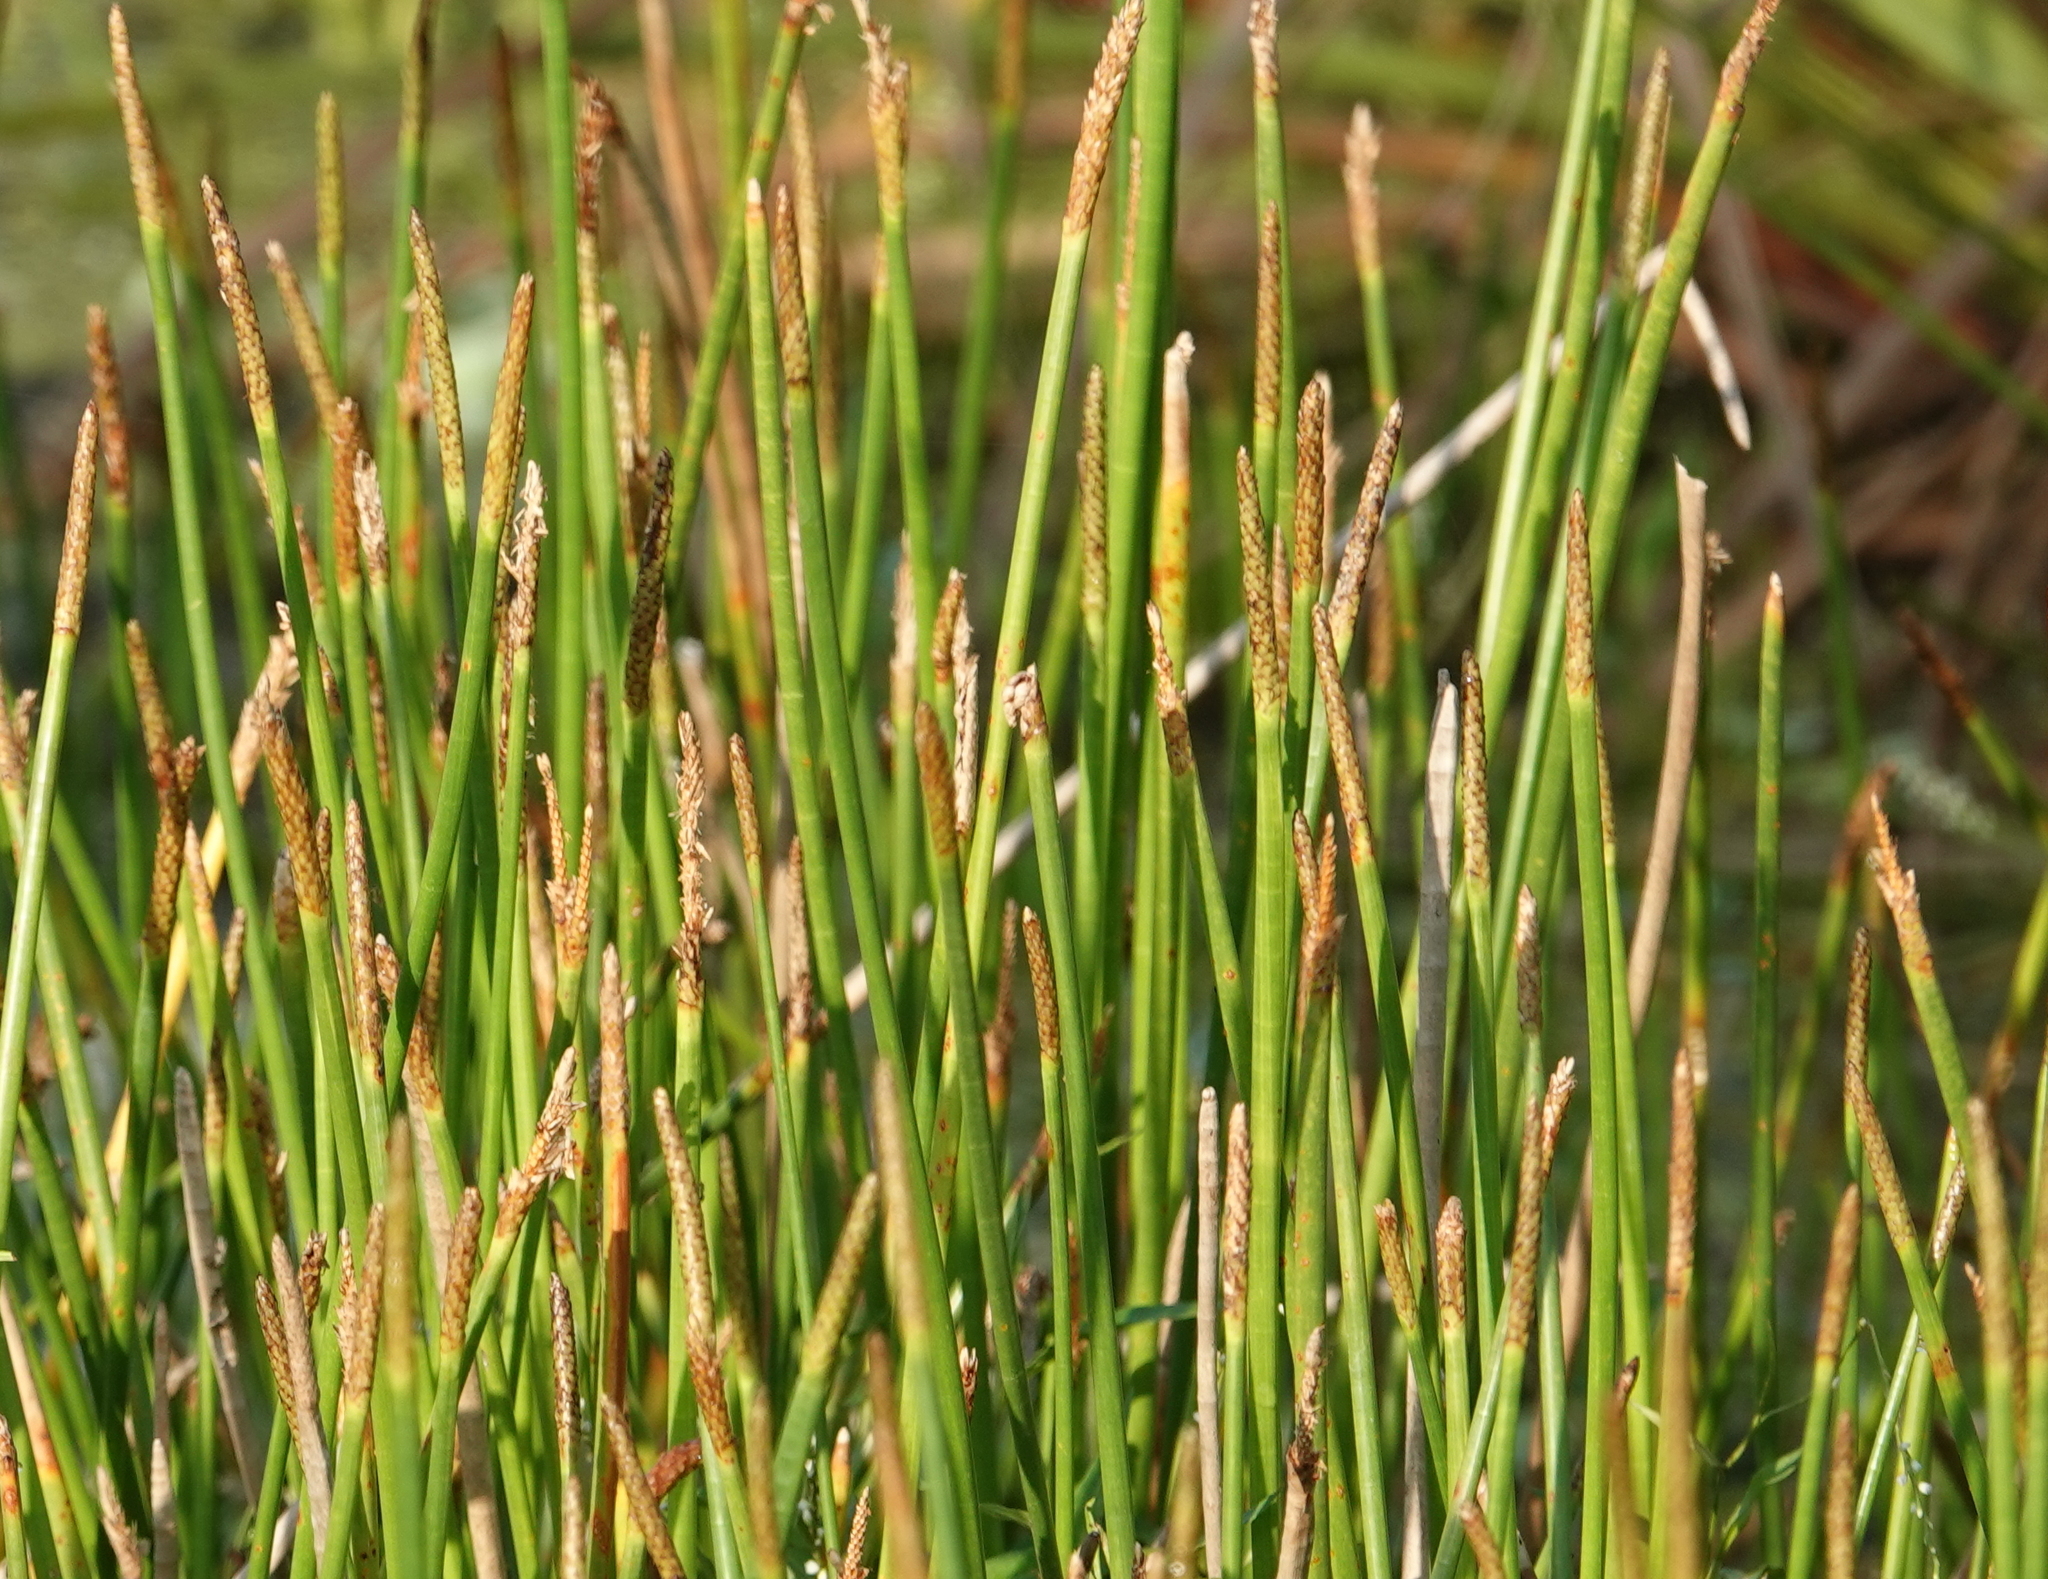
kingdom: Plantae
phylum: Tracheophyta
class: Liliopsida
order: Poales
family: Cyperaceae
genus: Eleocharis
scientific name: Eleocharis cellulosa
